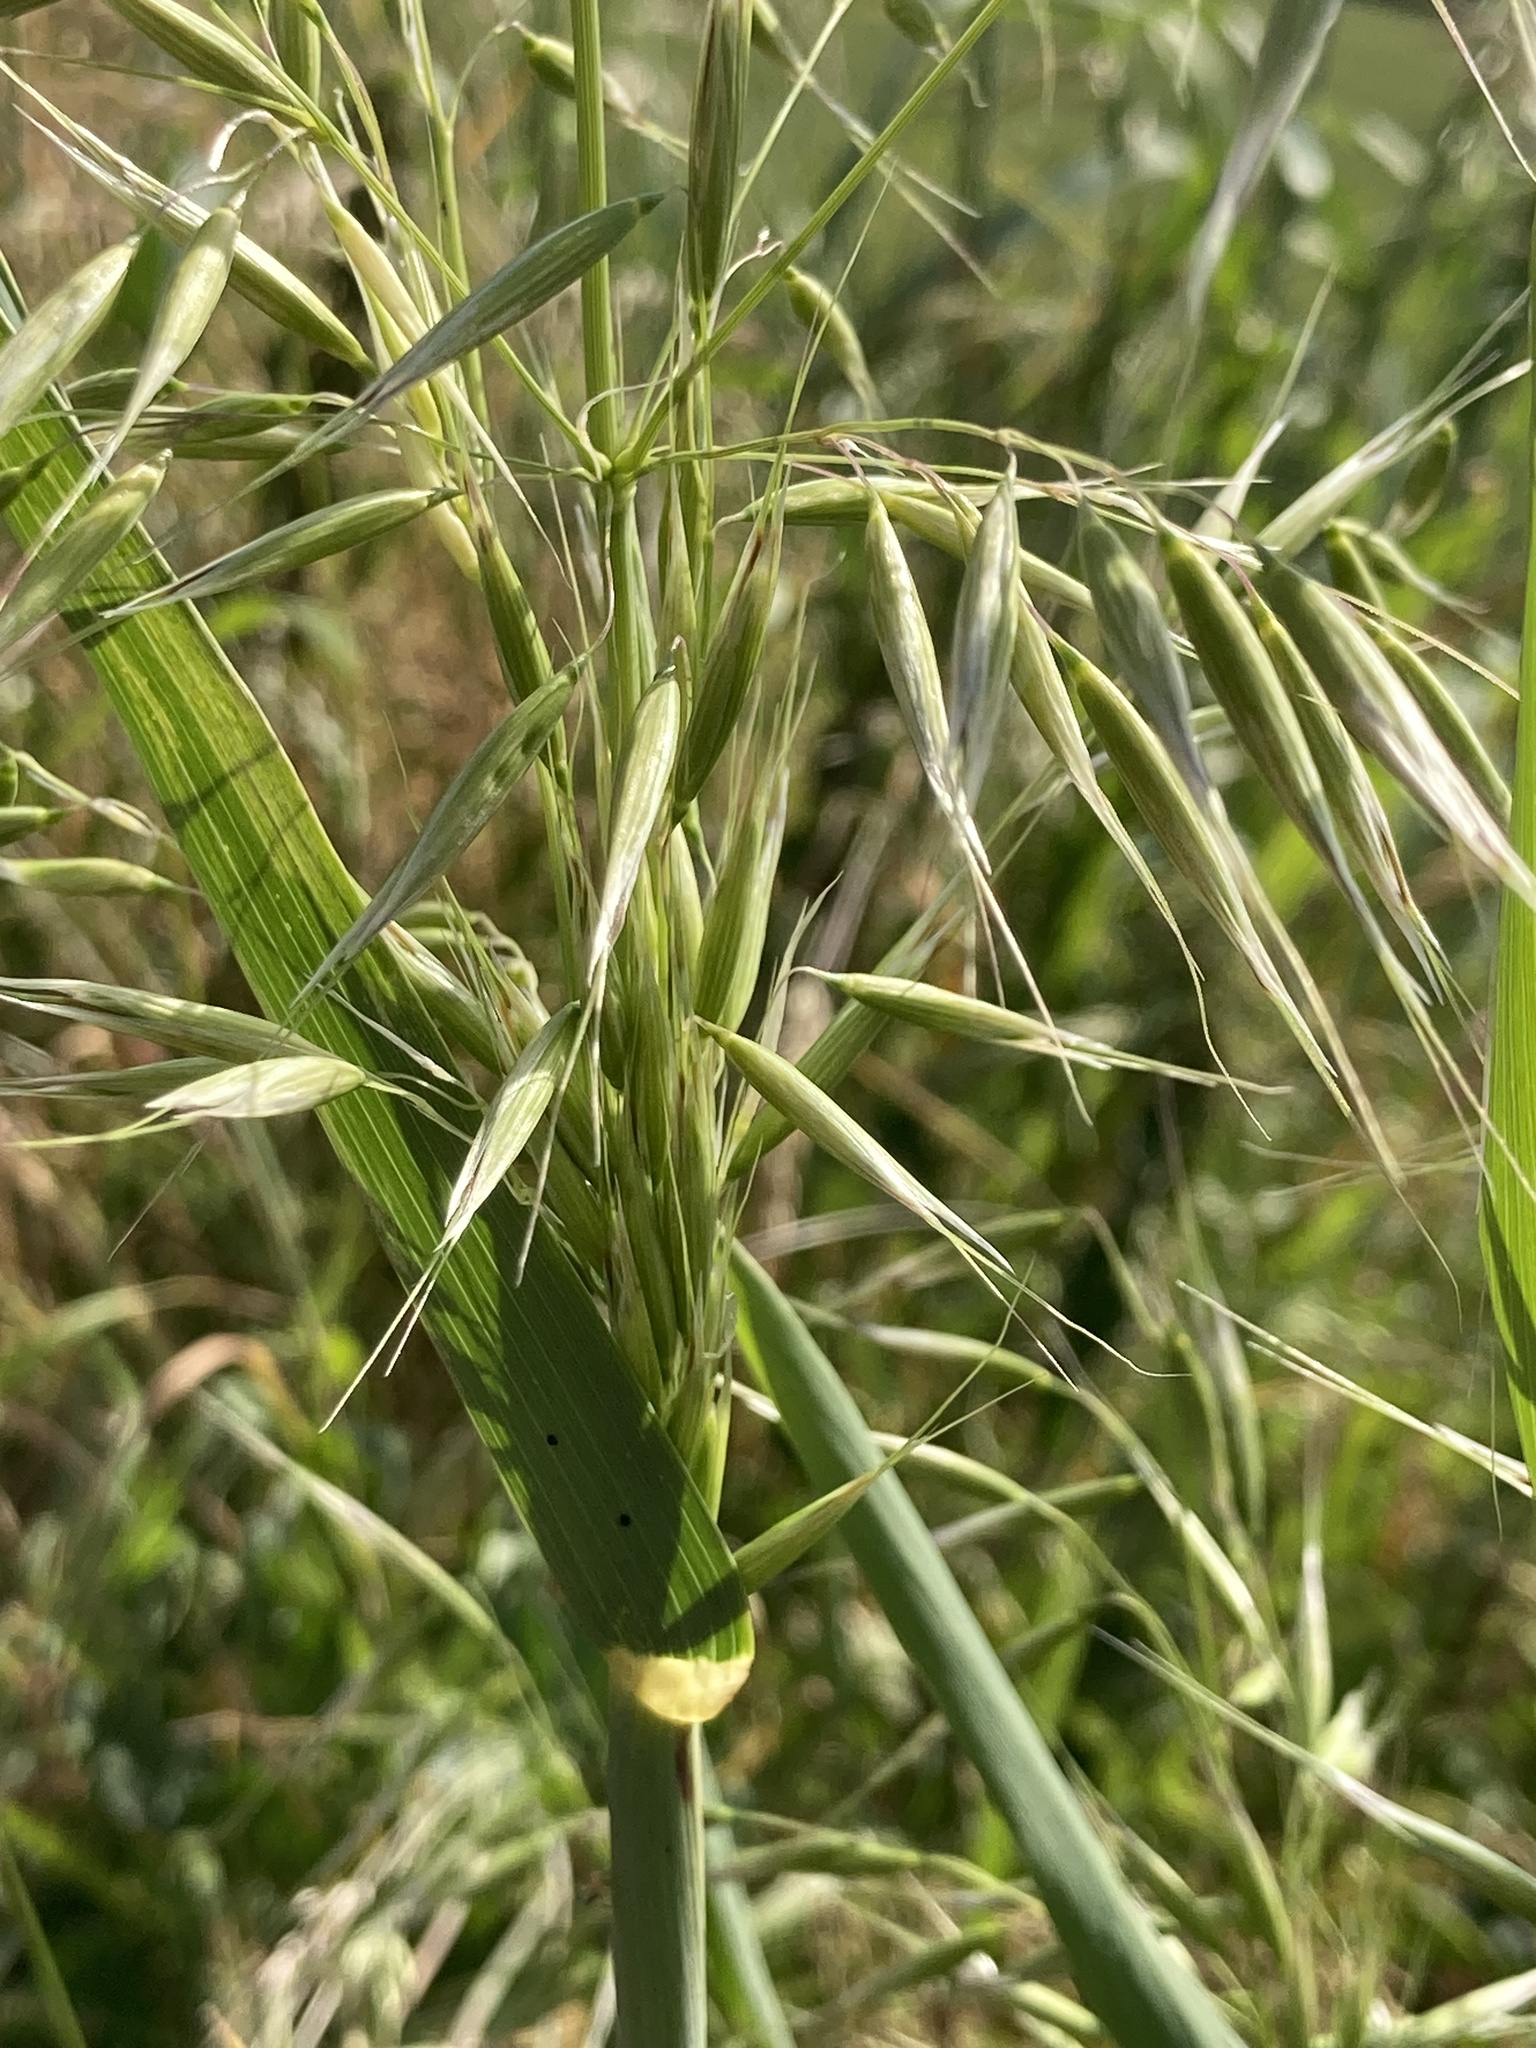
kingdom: Plantae
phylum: Tracheophyta
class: Liliopsida
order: Poales
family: Poaceae
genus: Arrhenatherum
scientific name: Arrhenatherum elatius
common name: Tall oatgrass
